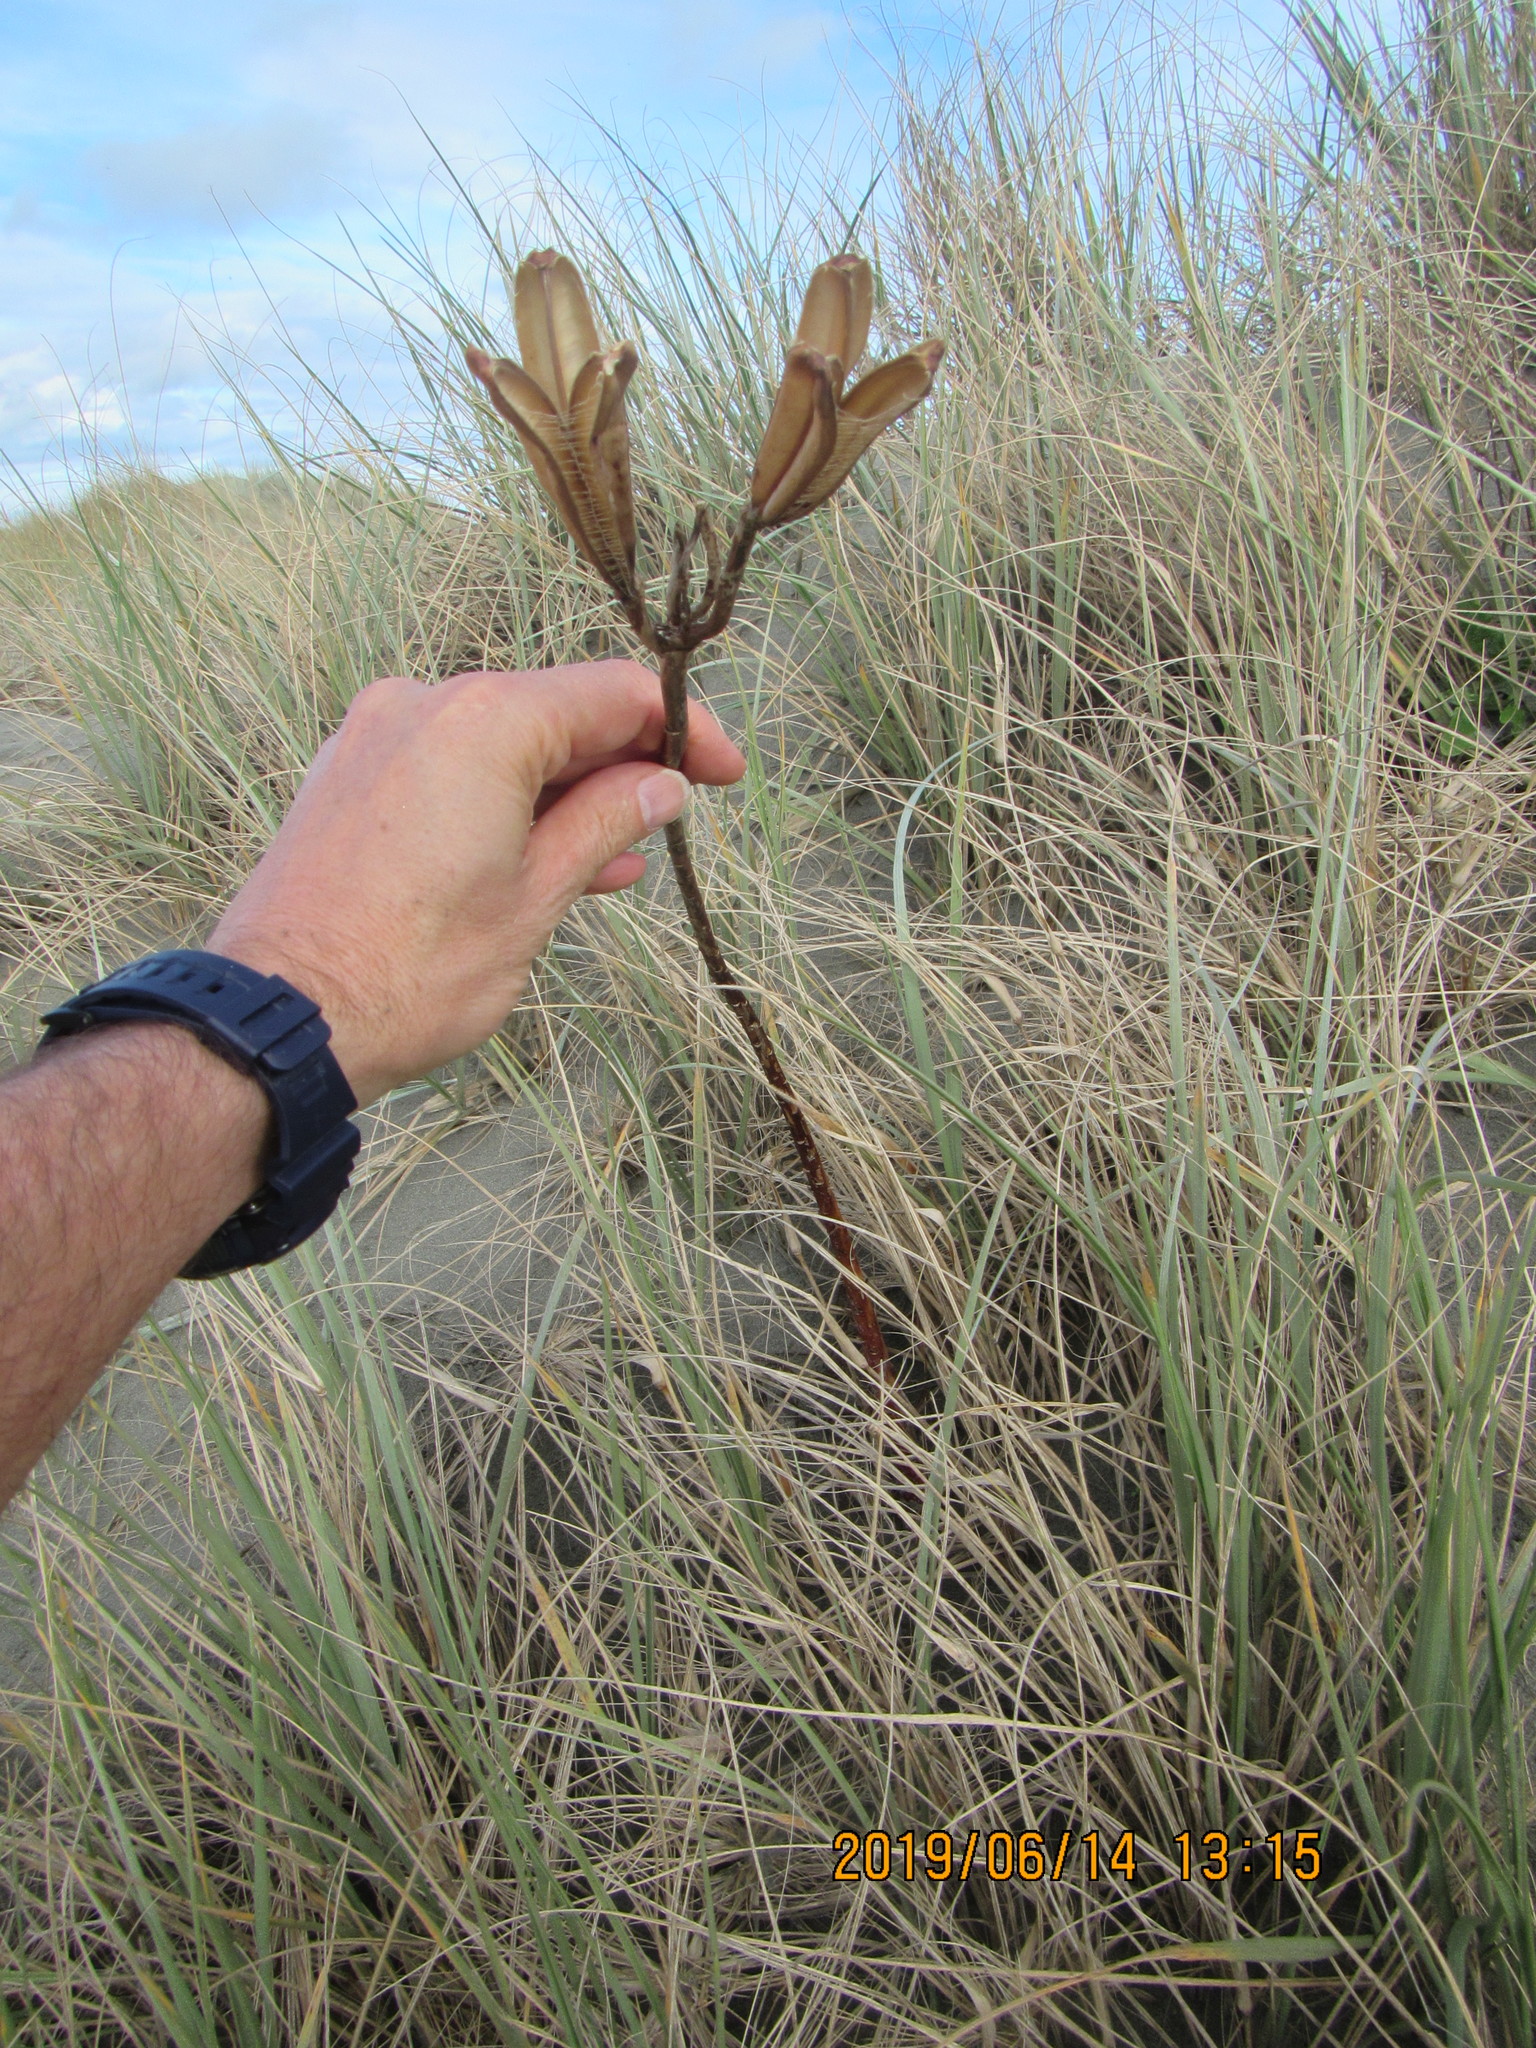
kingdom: Plantae
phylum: Tracheophyta
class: Liliopsida
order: Liliales
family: Liliaceae
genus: Lilium
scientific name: Lilium formosanum
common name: Formosa lily
